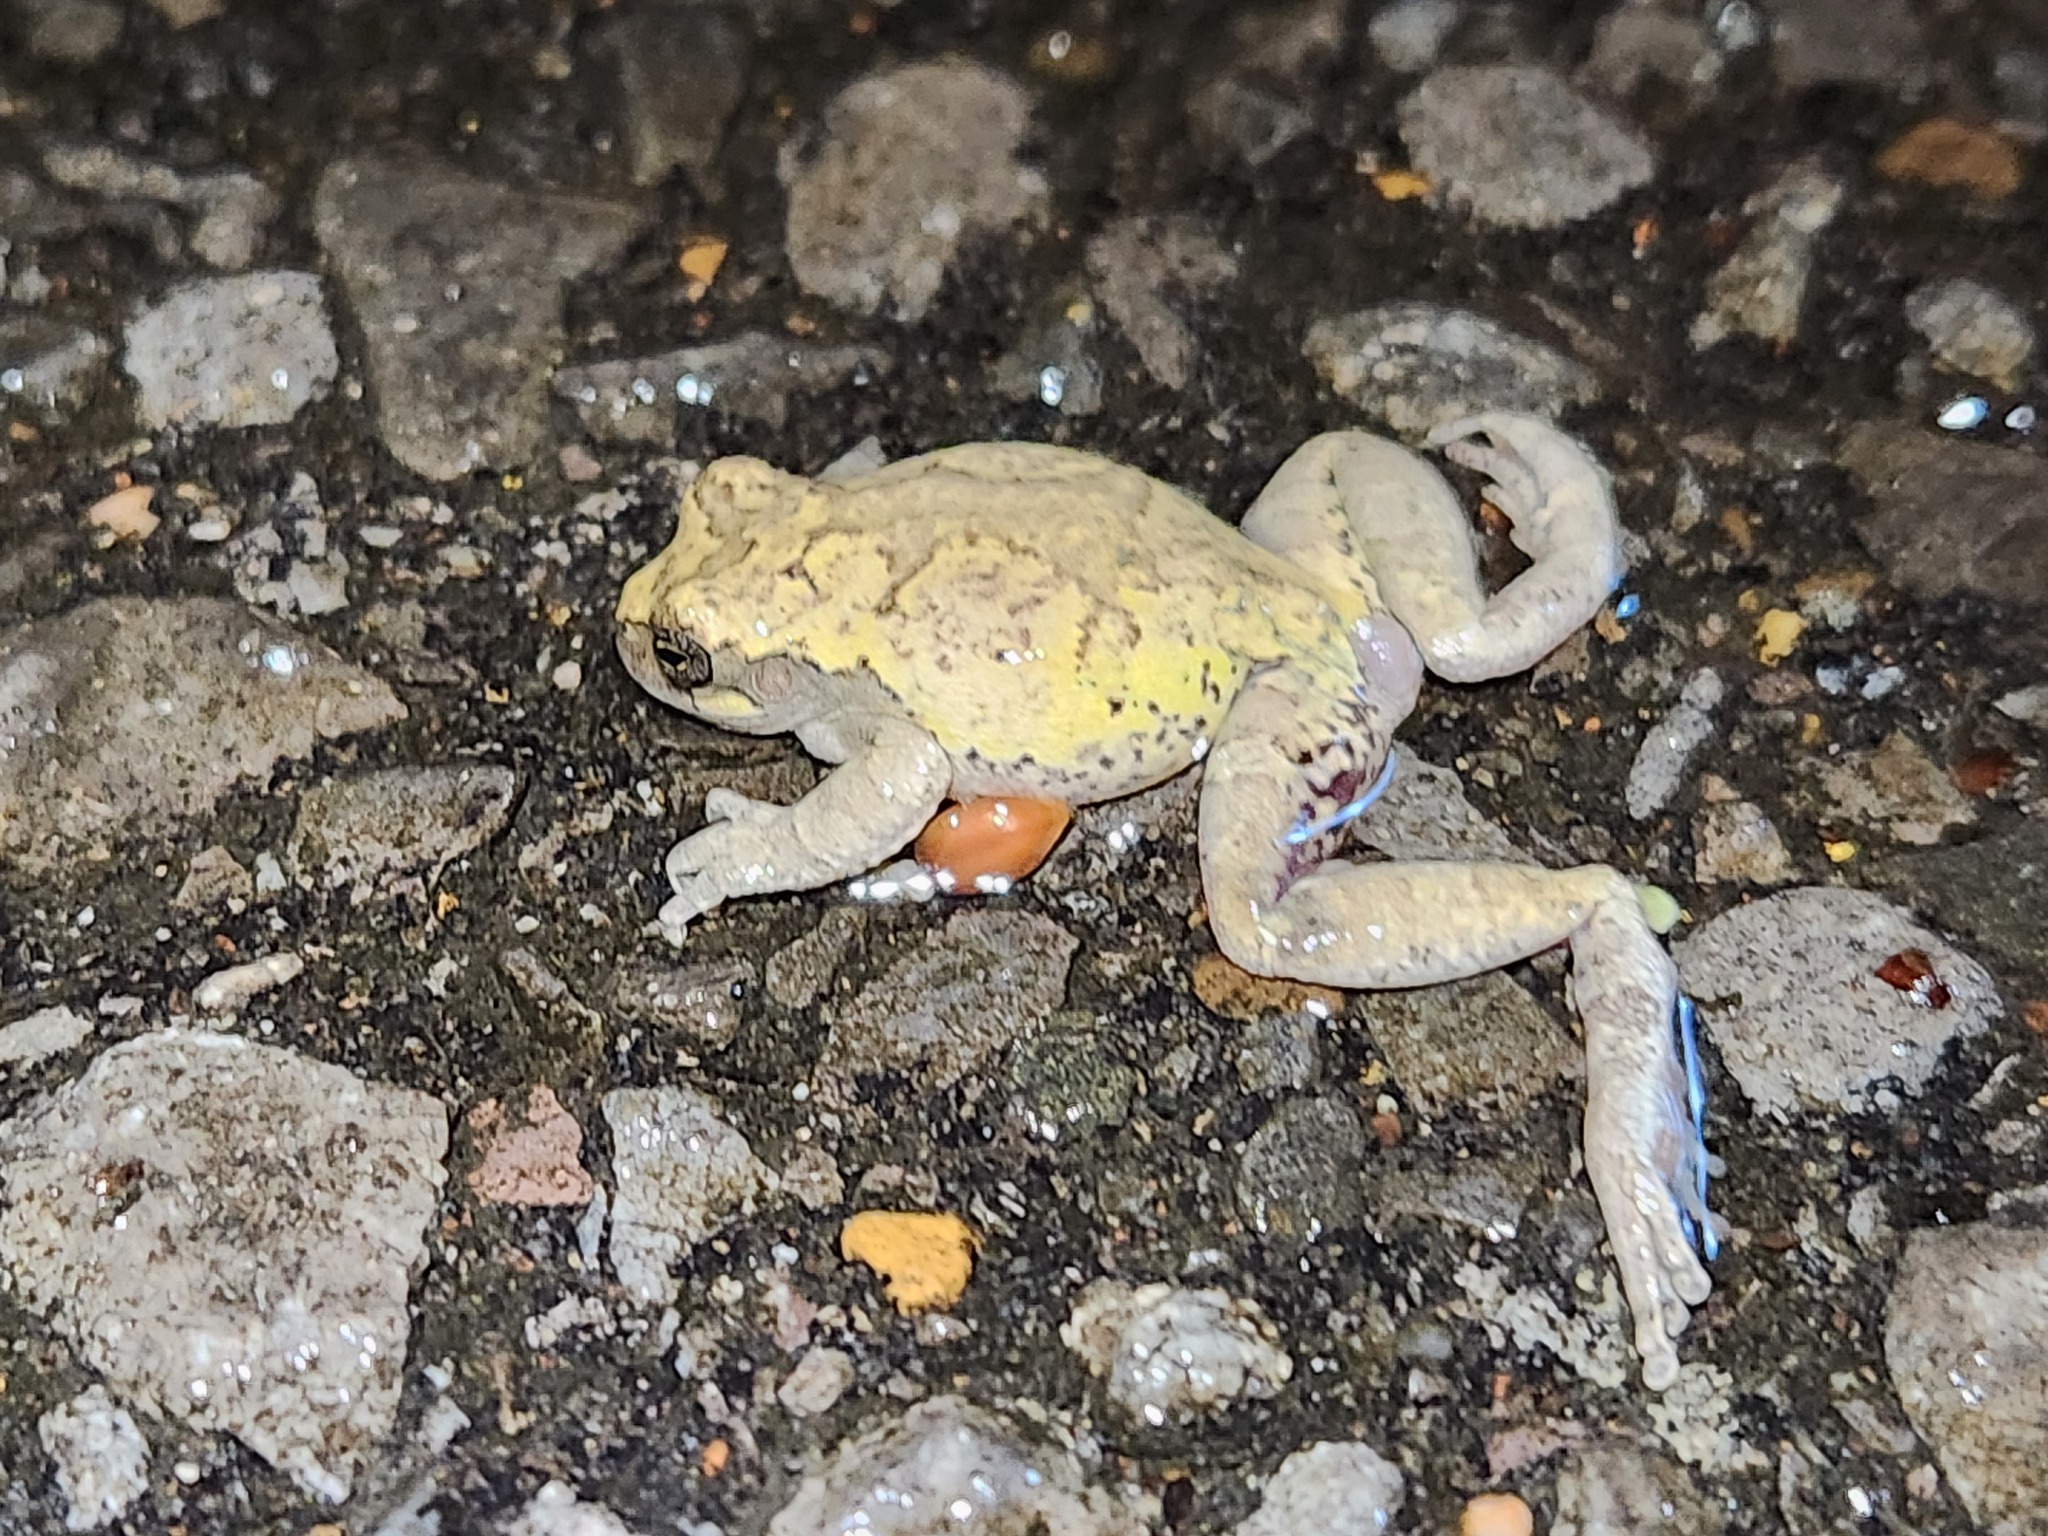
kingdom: Animalia
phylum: Chordata
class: Amphibia
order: Anura
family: Hylidae
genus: Dryophytes
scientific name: Dryophytes avivoca
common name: Bird-voiced treefrog
